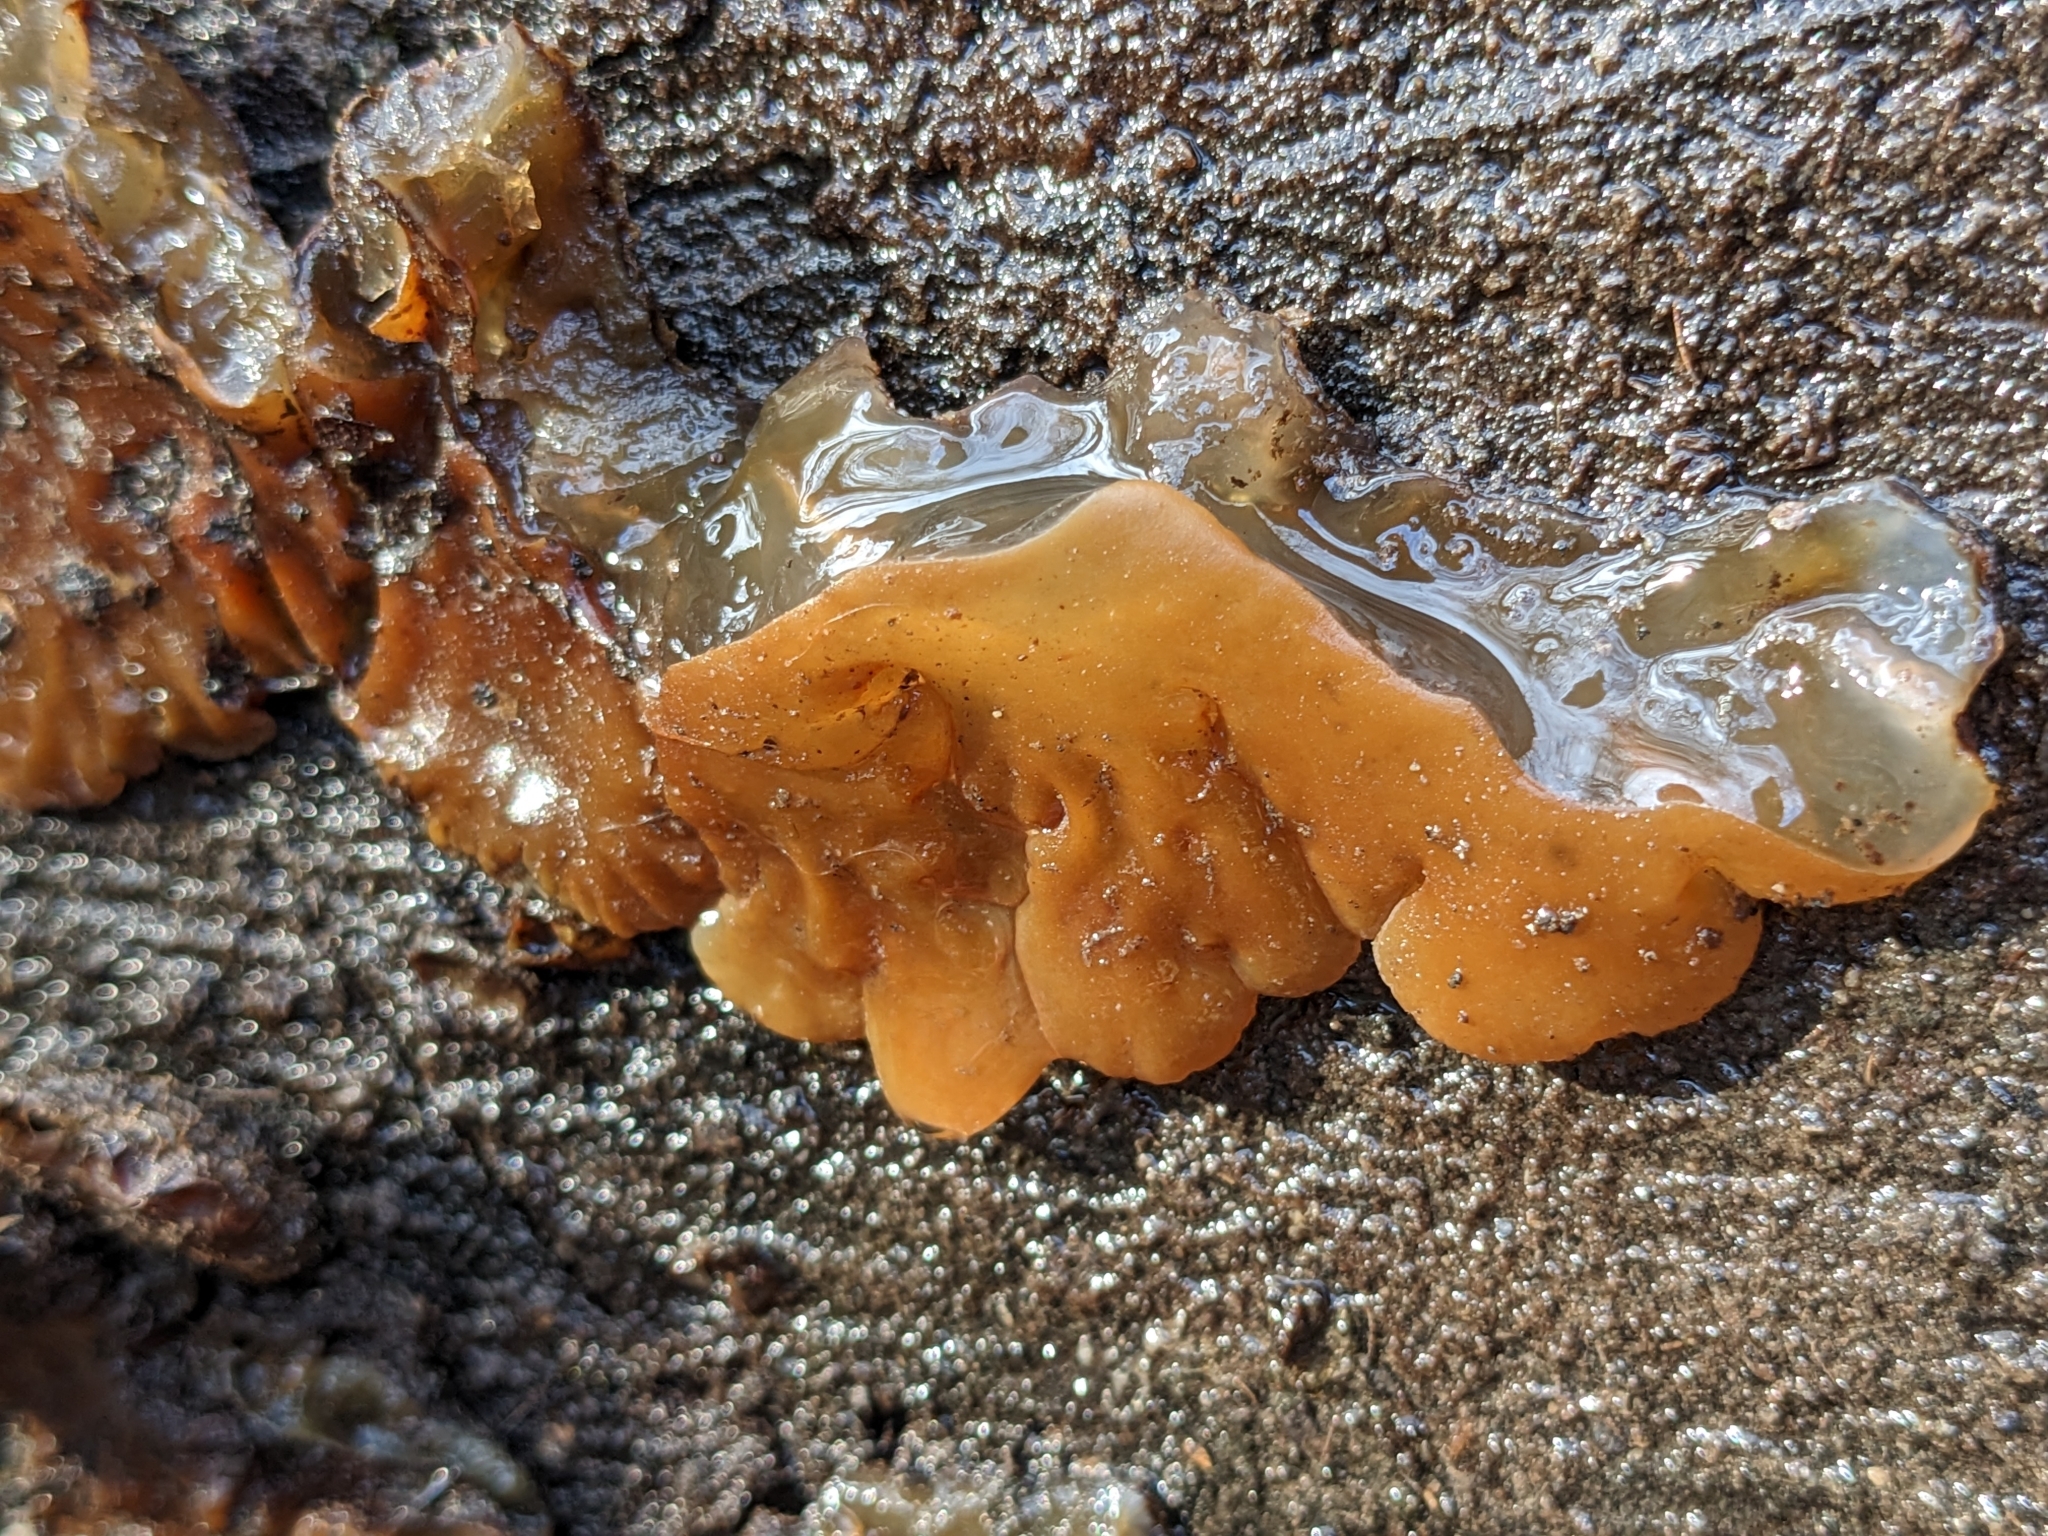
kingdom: Fungi
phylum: Basidiomycota
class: Agaricomycetes
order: Auriculariales
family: Auriculariaceae
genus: Auricularia
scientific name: Auricularia mesenterica
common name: Tripe fungus
